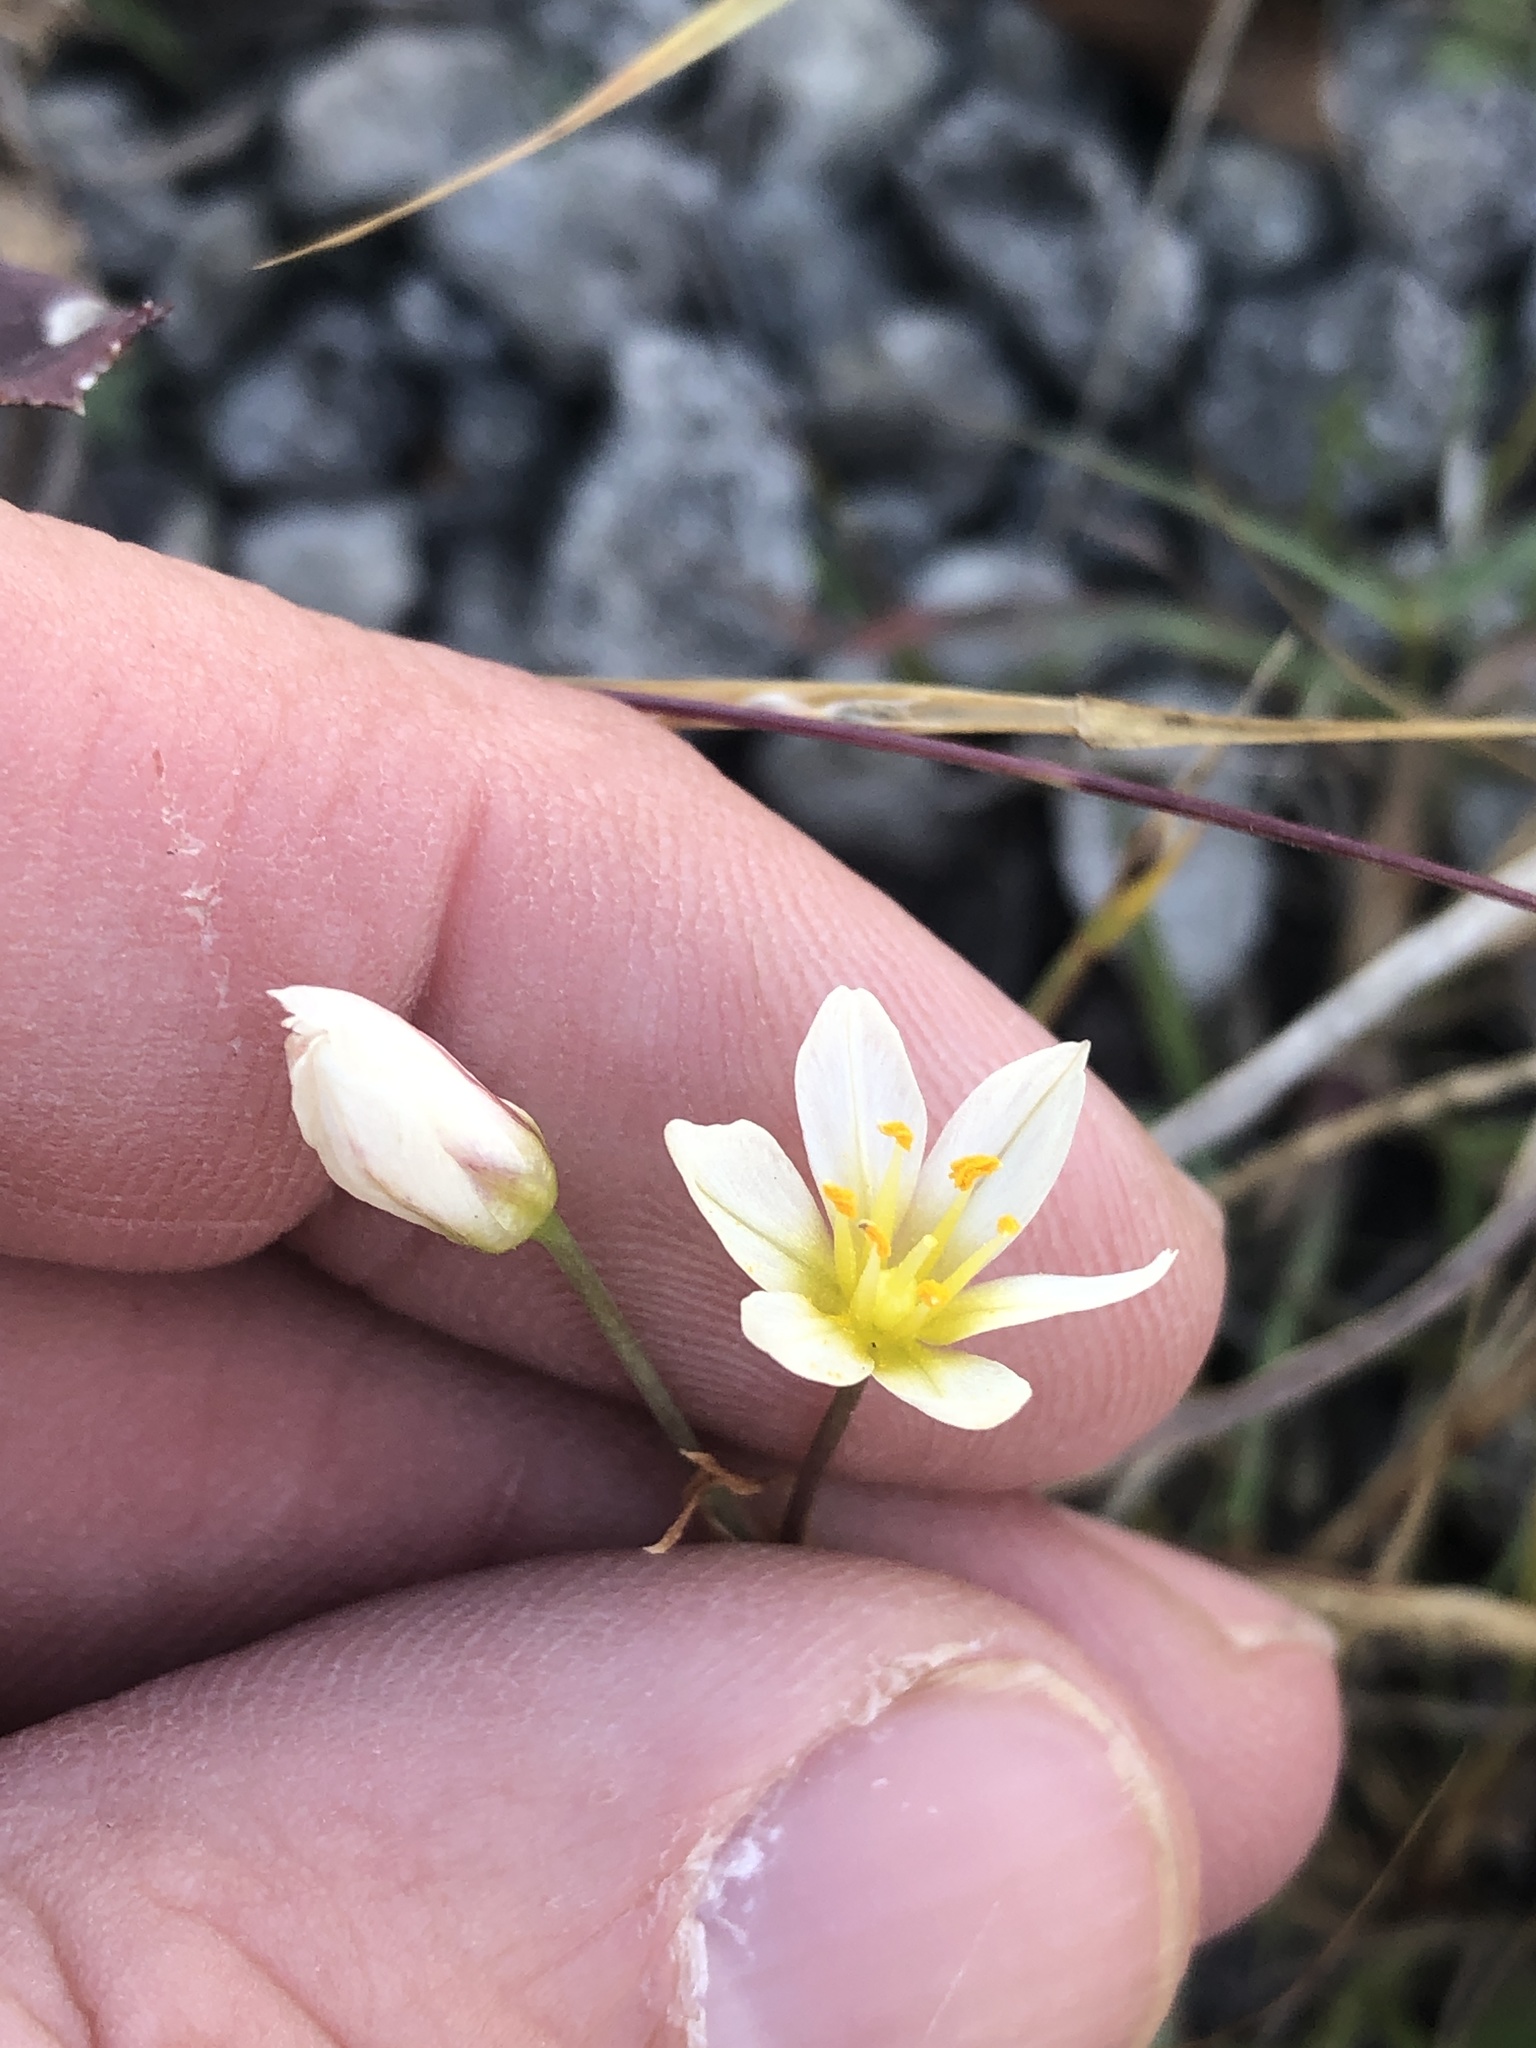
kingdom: Plantae
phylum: Tracheophyta
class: Liliopsida
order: Asparagales
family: Amaryllidaceae
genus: Nothoscordum
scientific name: Nothoscordum bivalve
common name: Crow-poison
